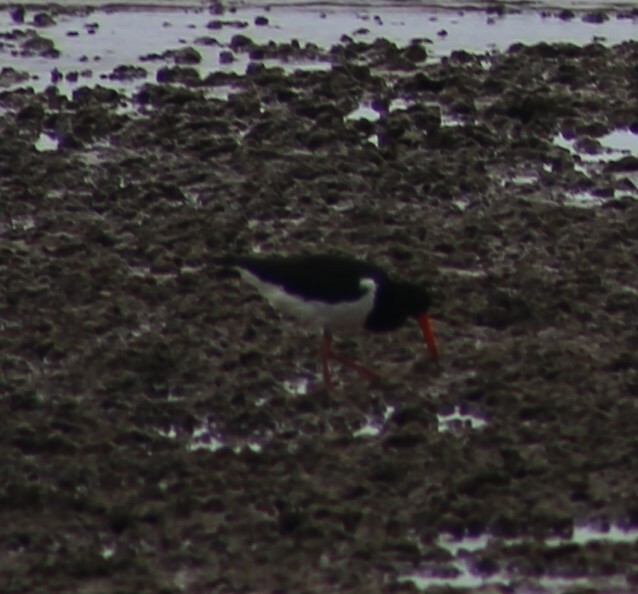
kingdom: Animalia
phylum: Chordata
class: Aves
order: Charadriiformes
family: Haematopodidae
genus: Haematopus
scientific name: Haematopus longirostris
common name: Pied oystercatcher
